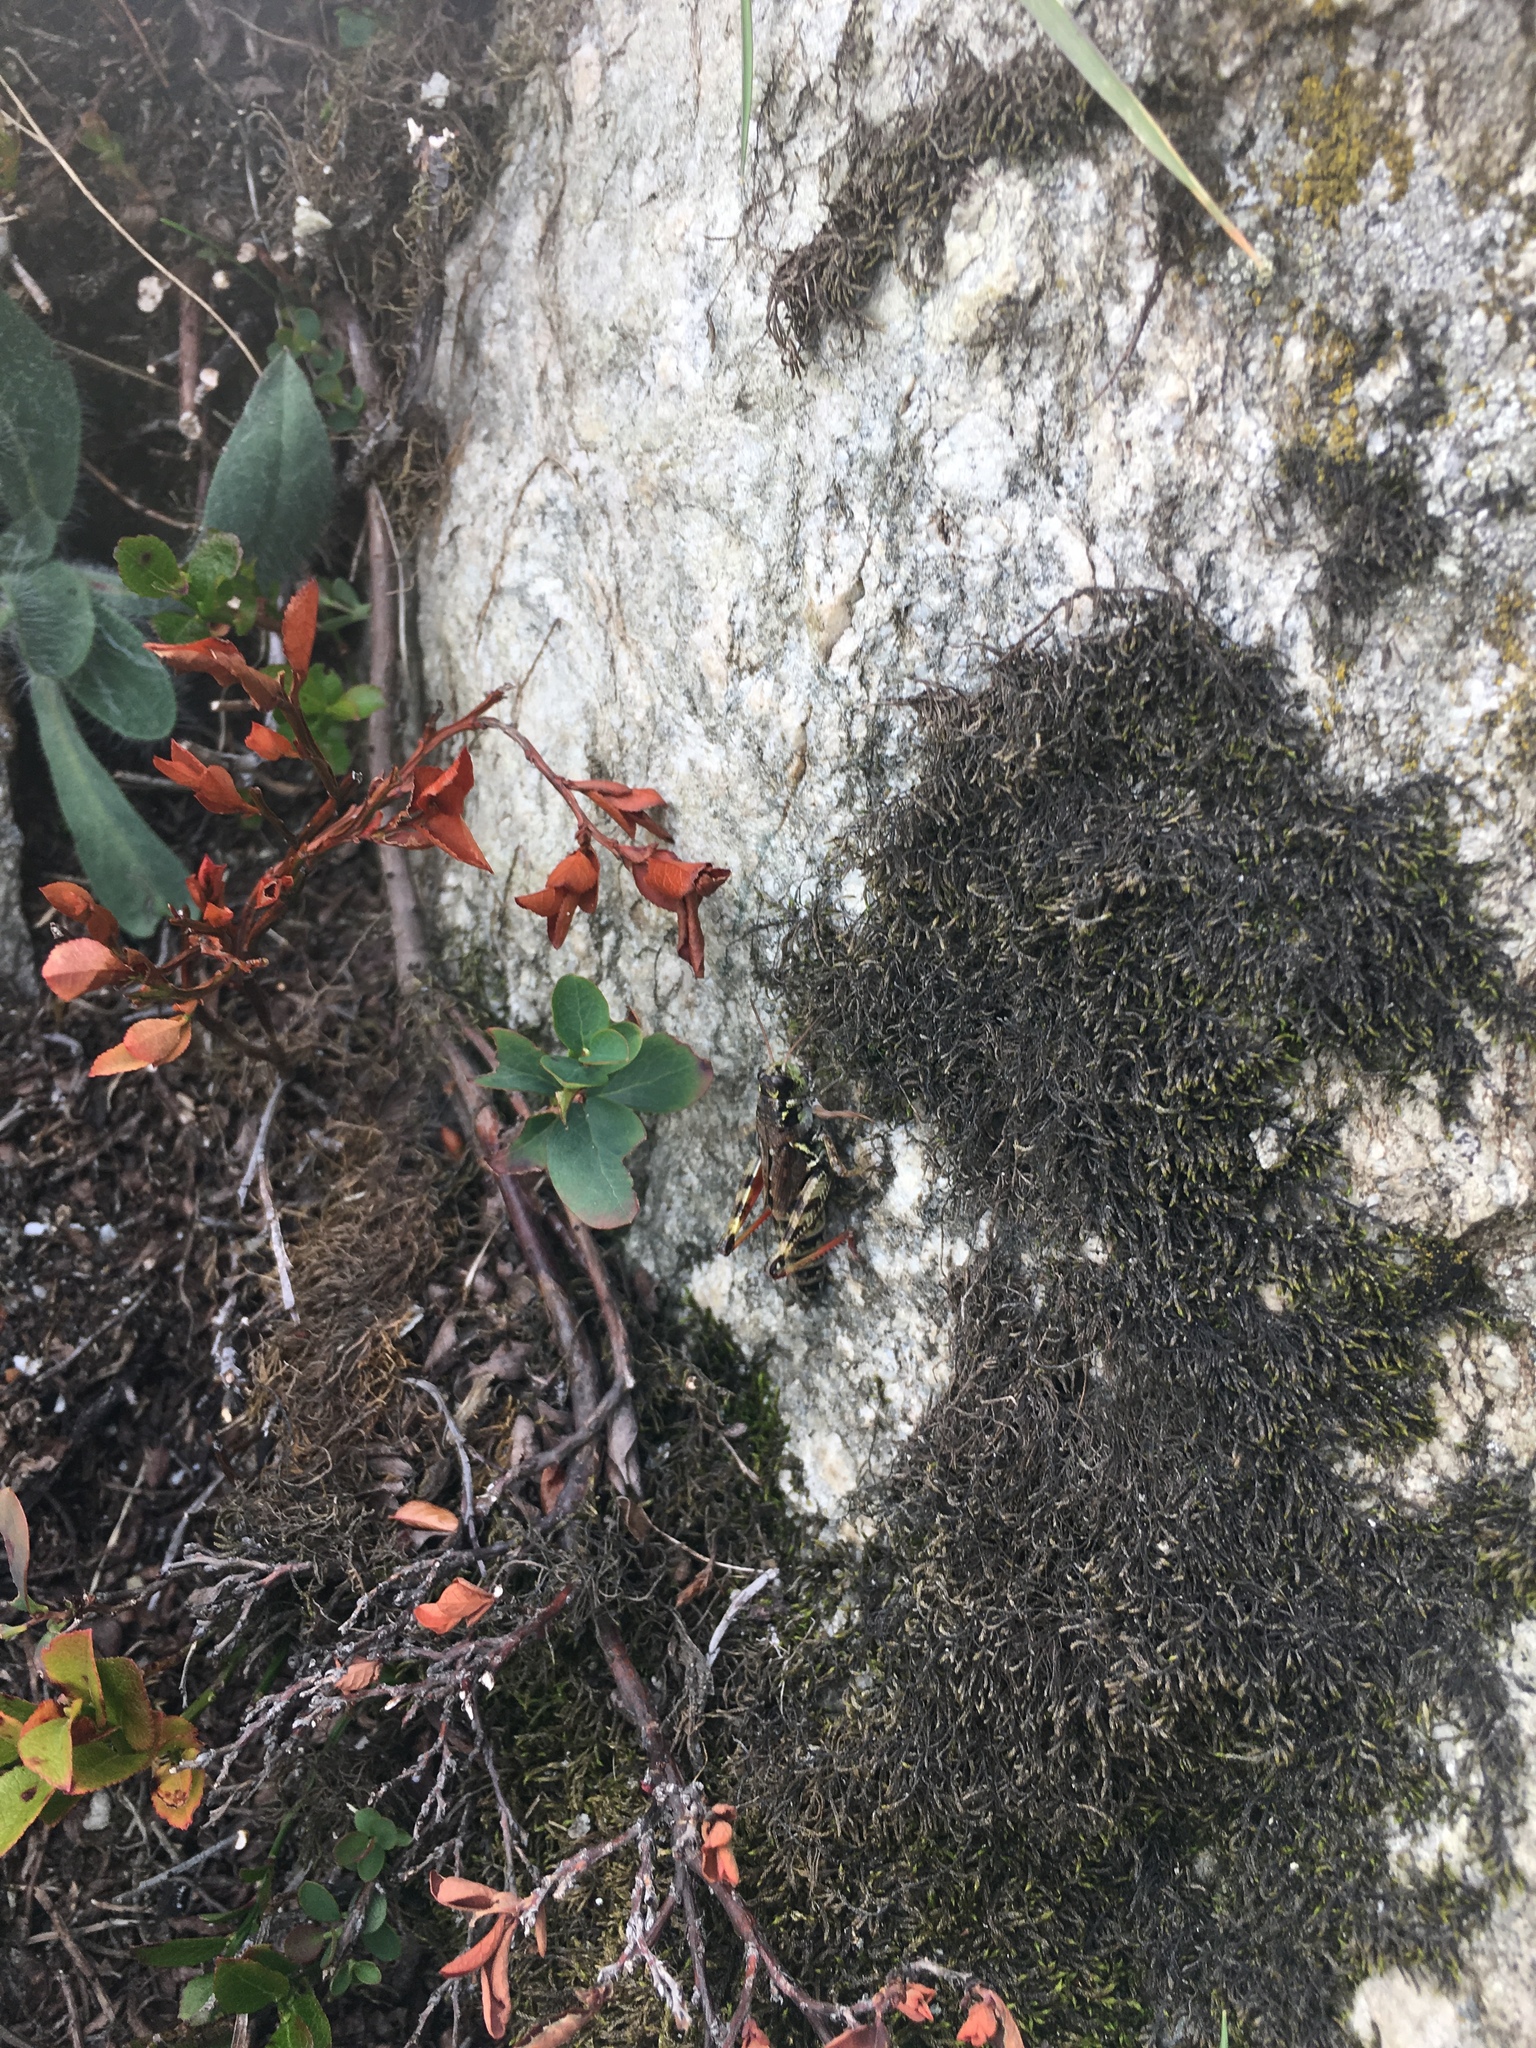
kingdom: Animalia
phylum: Arthropoda
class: Insecta
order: Orthoptera
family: Acrididae
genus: Bohemanella
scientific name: Bohemanella frigida
